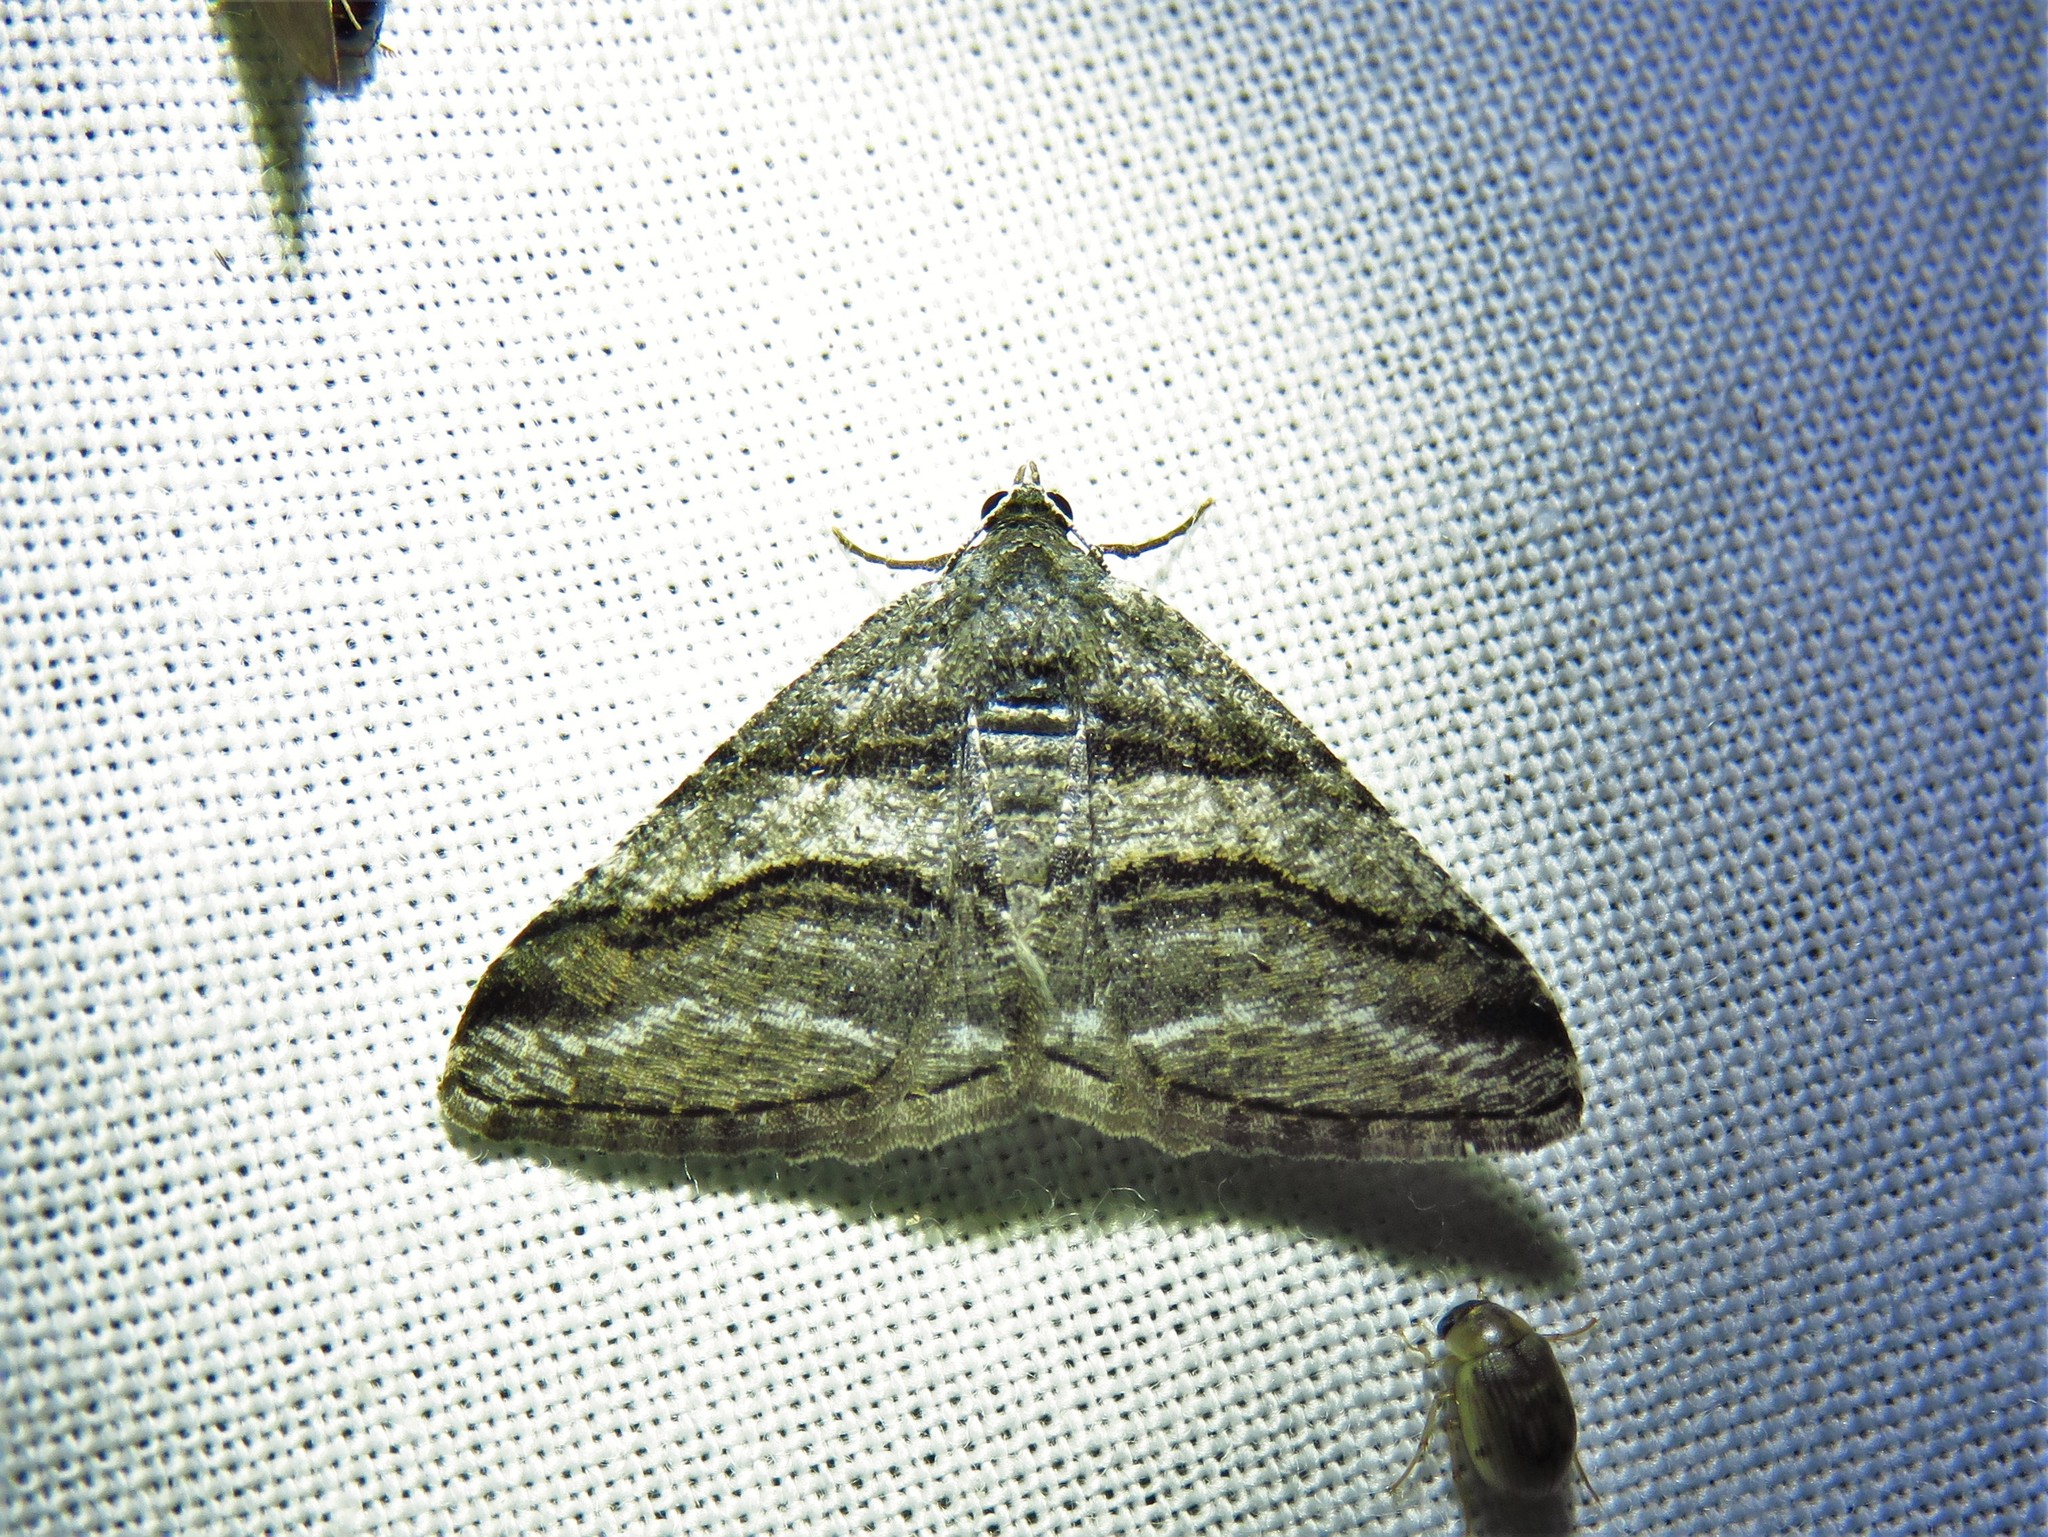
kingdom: Animalia
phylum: Arthropoda
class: Insecta
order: Lepidoptera
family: Geometridae
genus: Digrammia
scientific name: Digrammia atrofasciata
